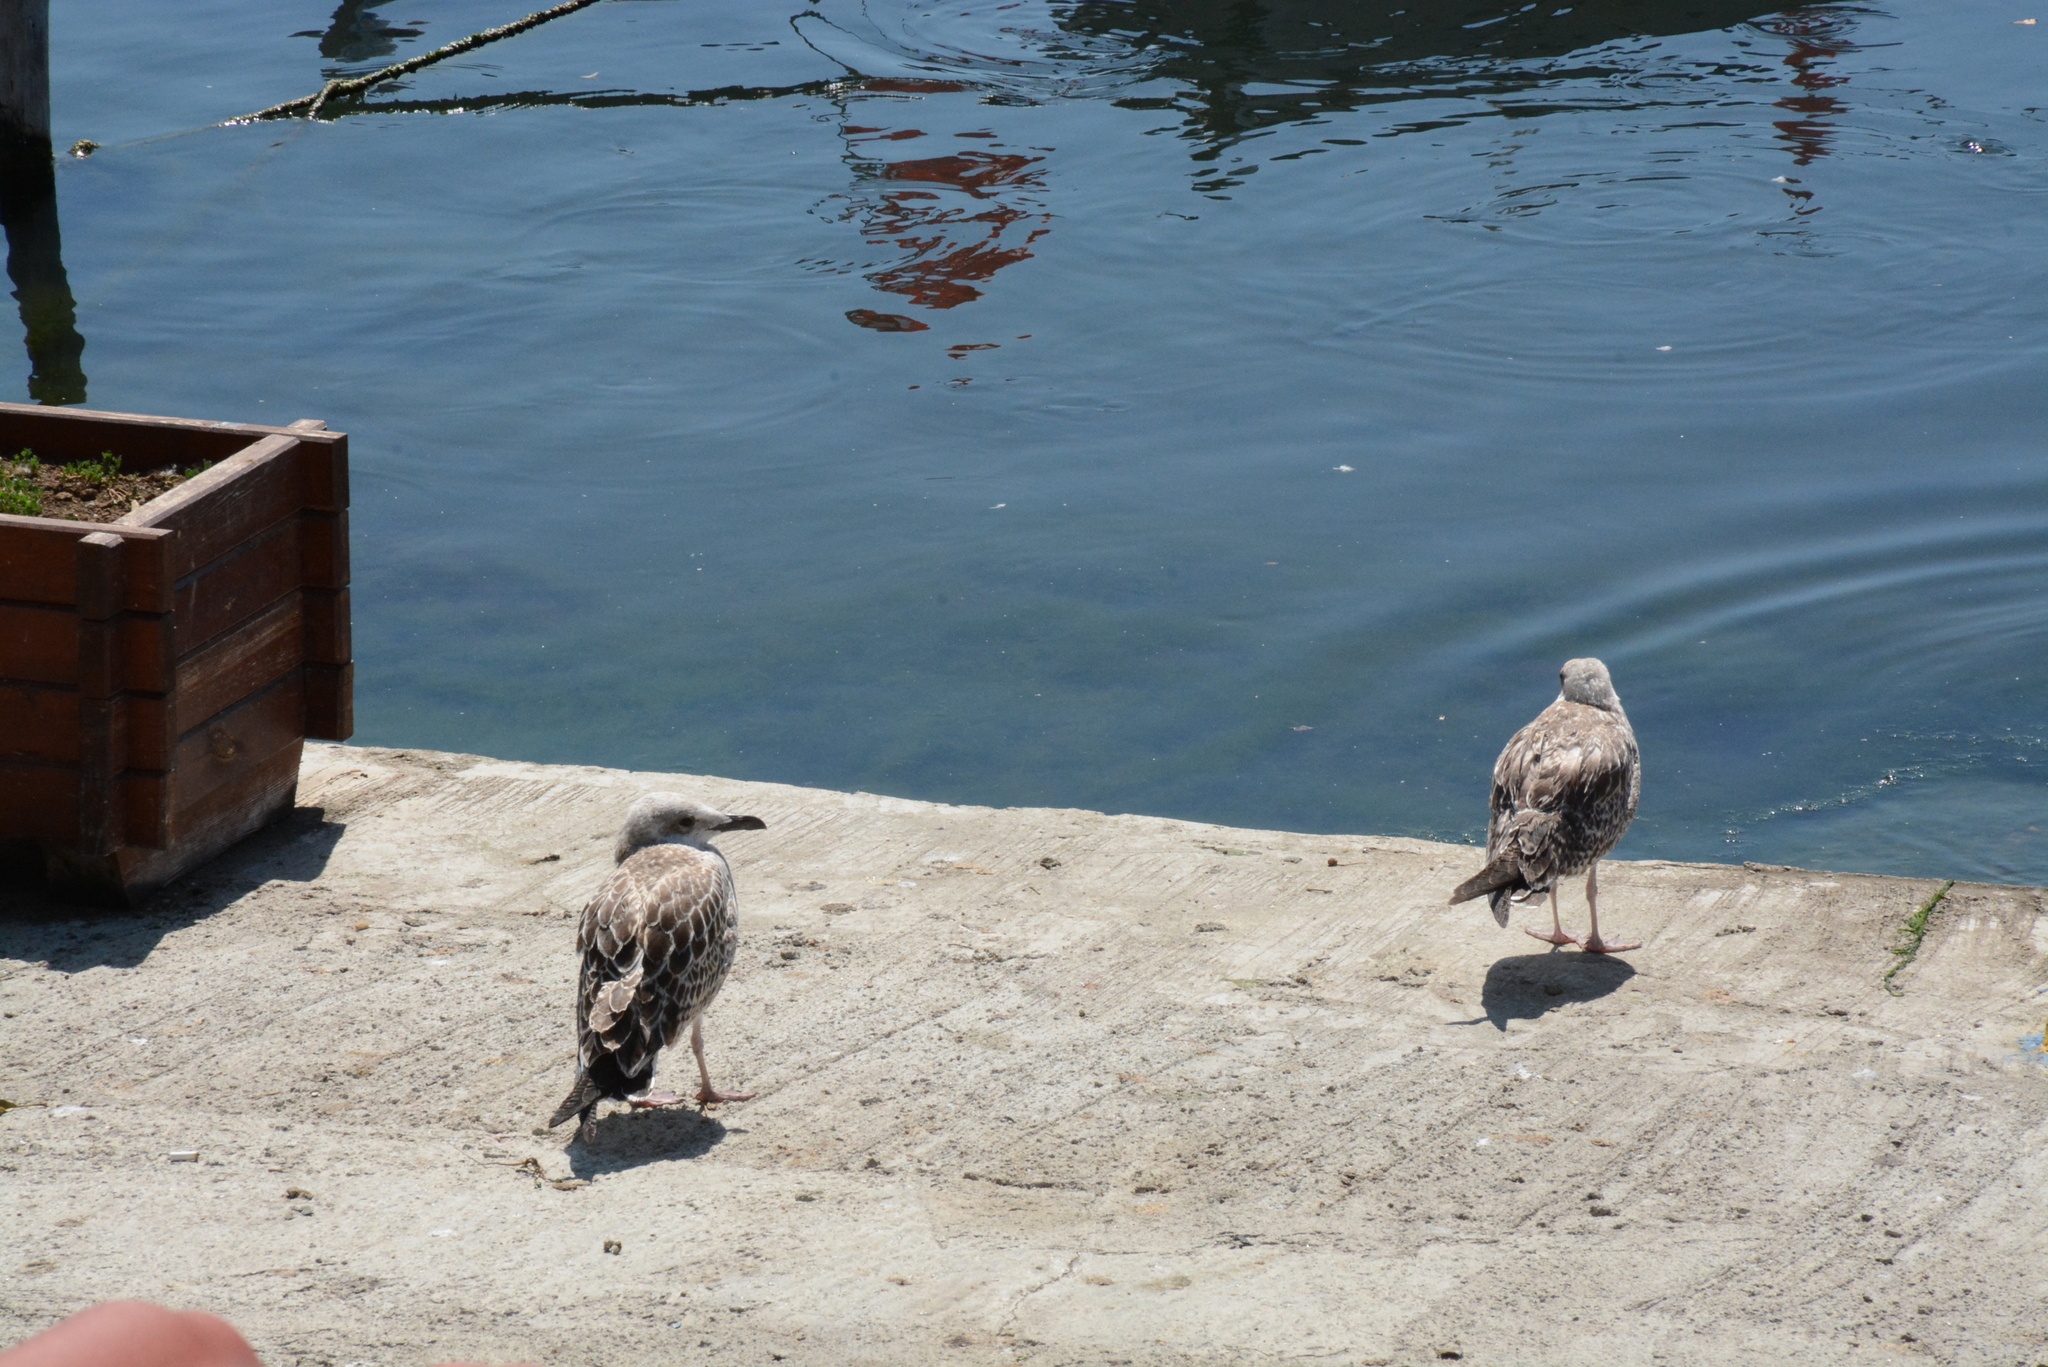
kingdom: Animalia
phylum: Chordata
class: Aves
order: Charadriiformes
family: Laridae
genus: Larus
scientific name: Larus michahellis
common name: Yellow-legged gull
